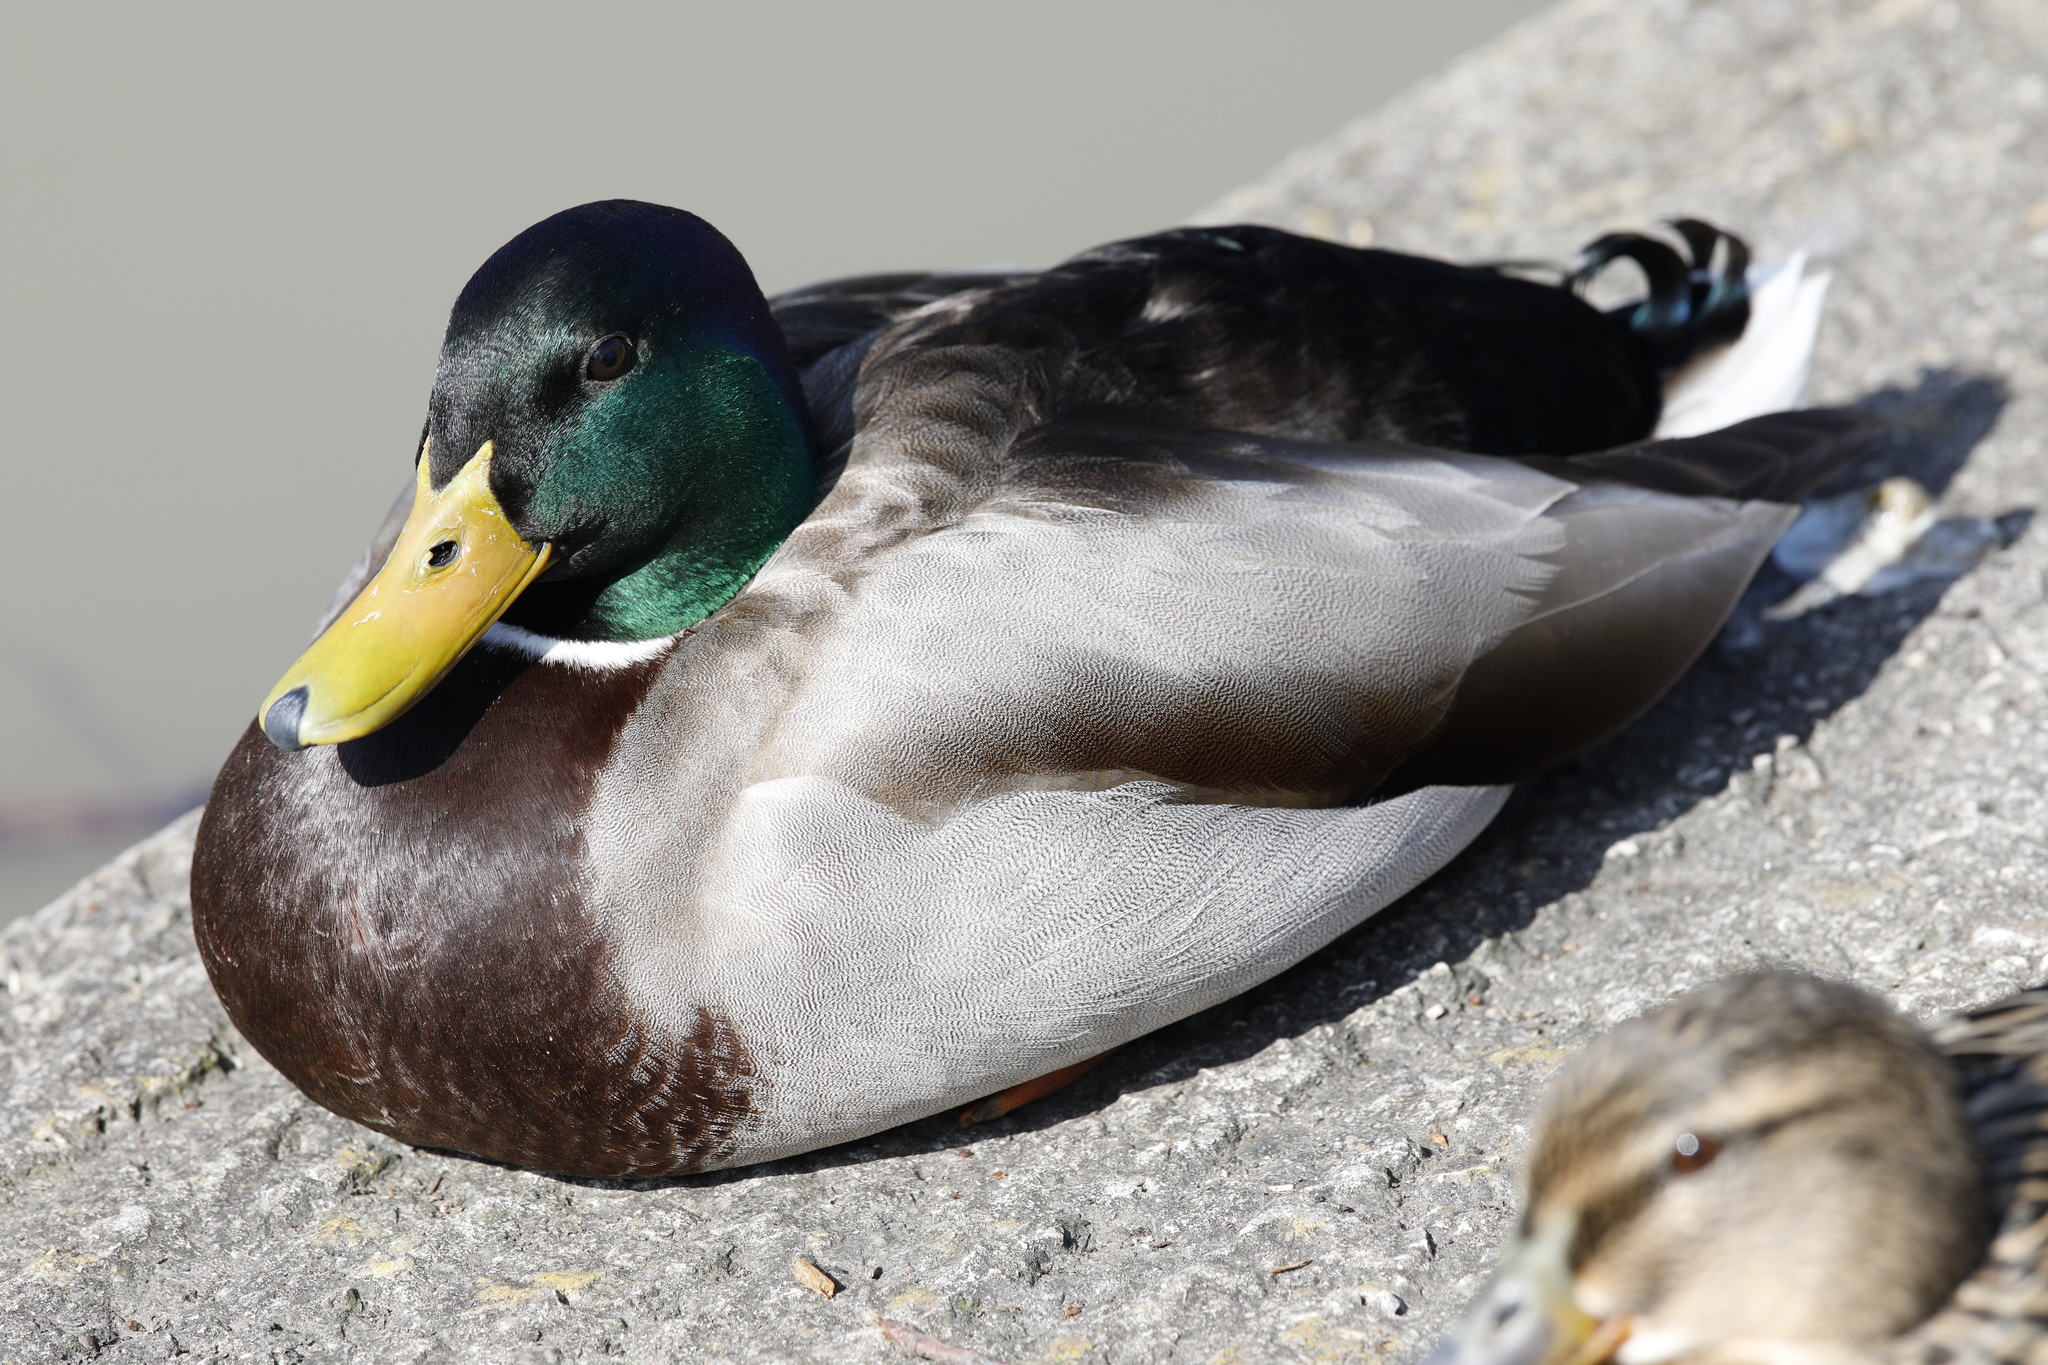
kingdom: Animalia
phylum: Chordata
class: Aves
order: Anseriformes
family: Anatidae
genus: Anas
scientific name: Anas platyrhynchos
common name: Mallard
